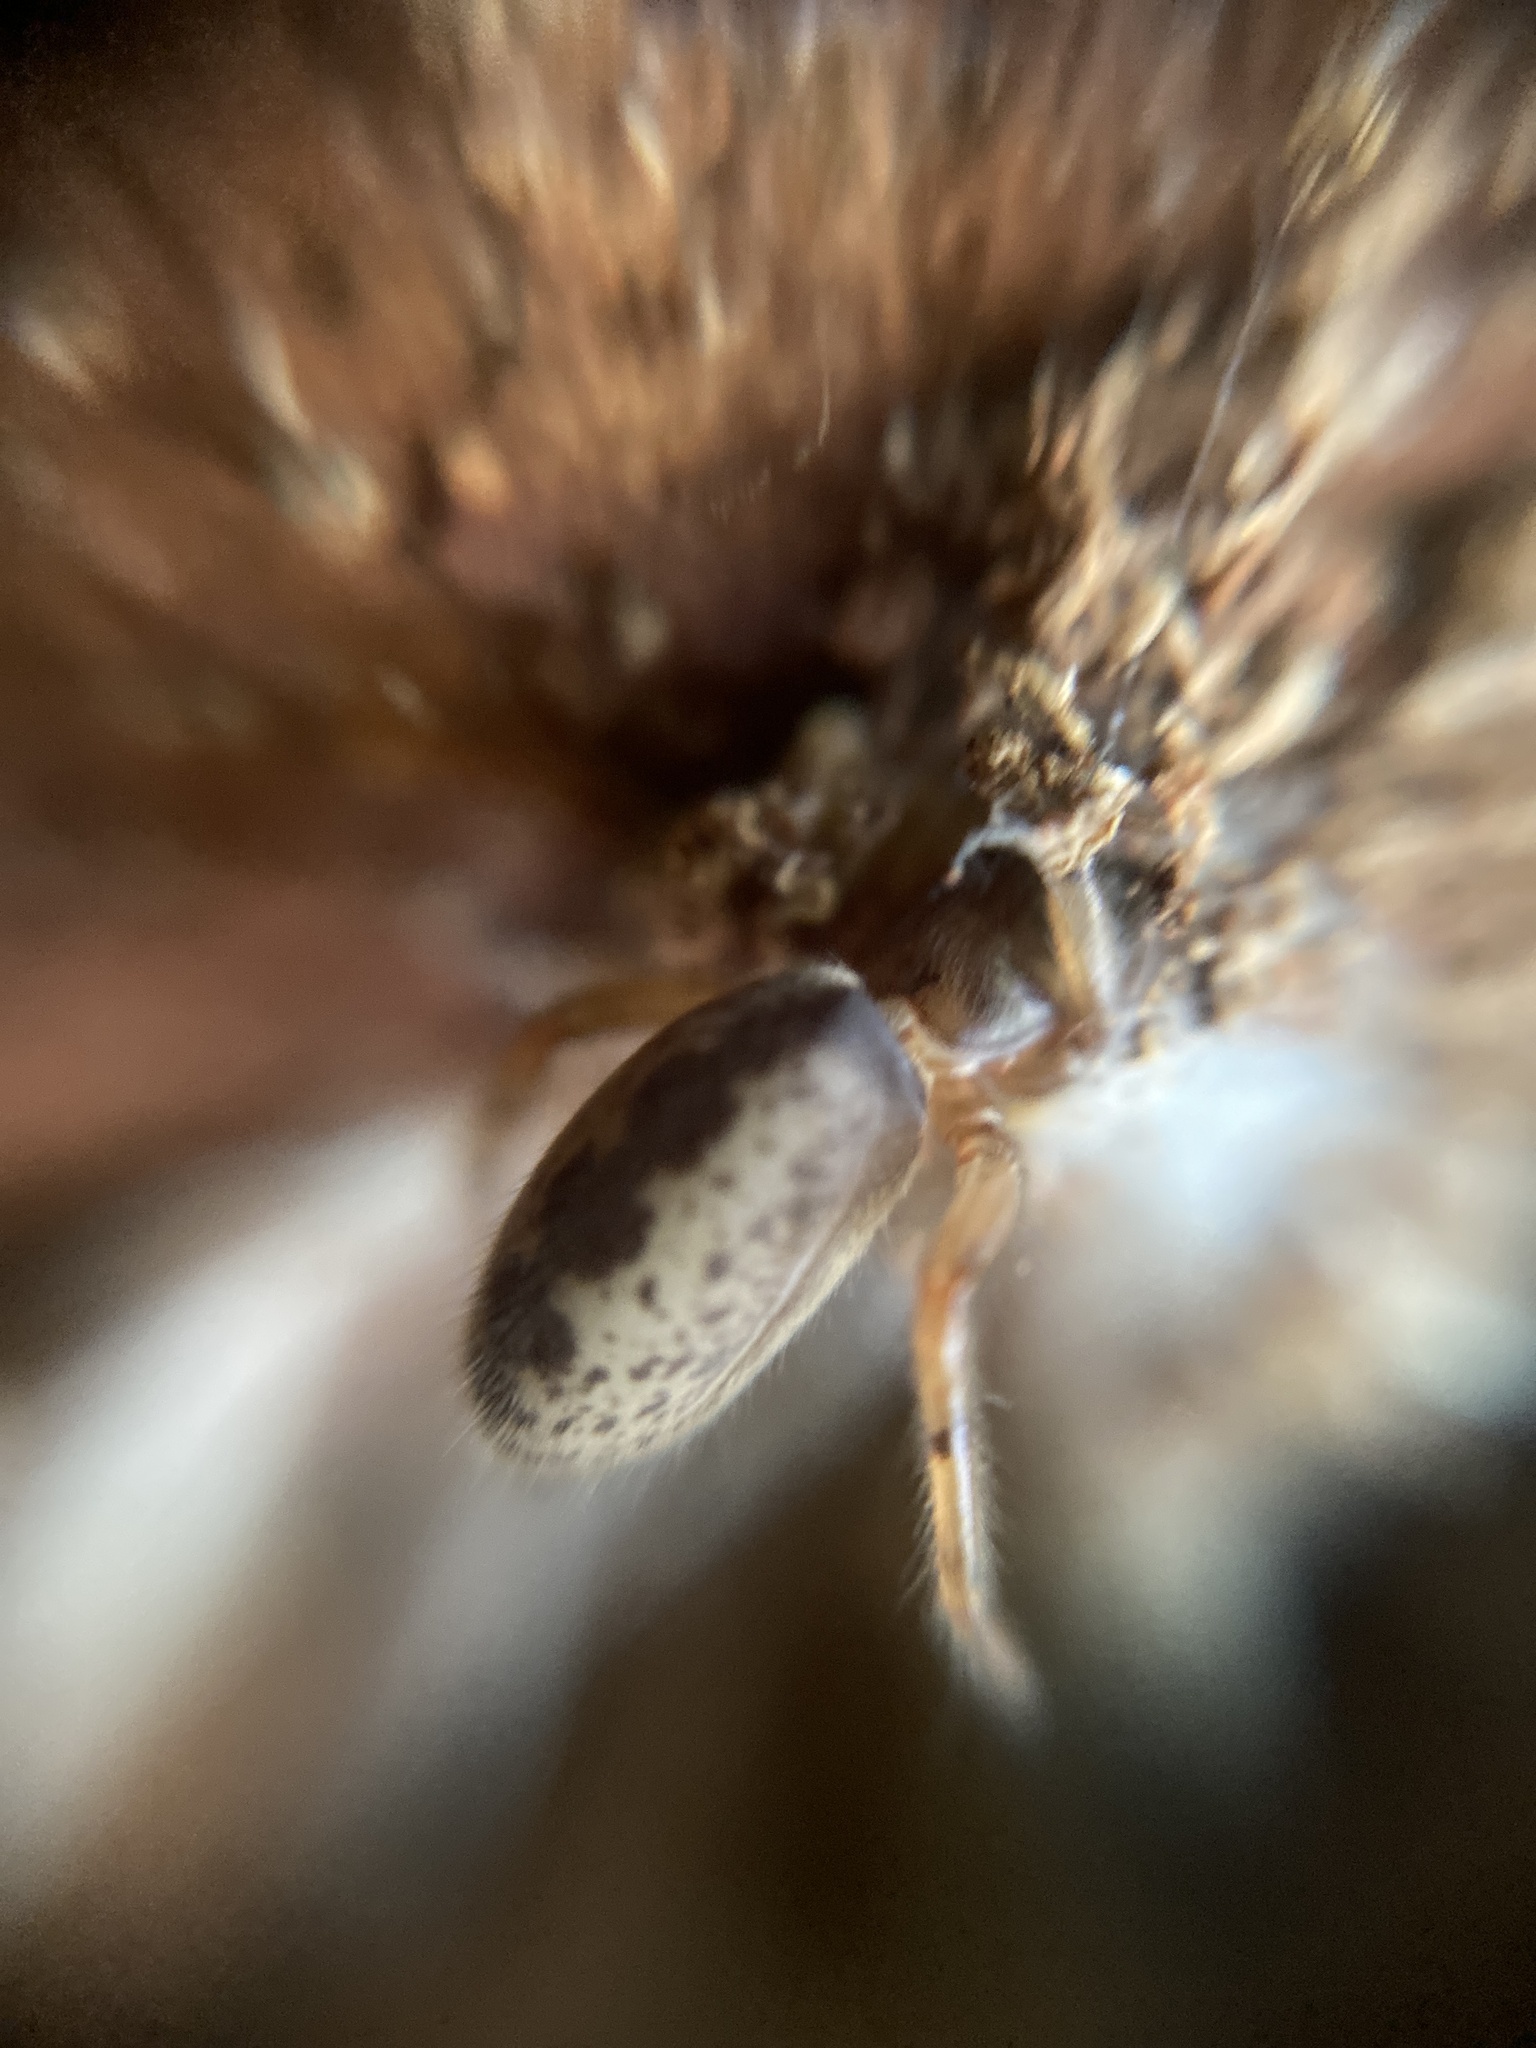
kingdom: Animalia
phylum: Arthropoda
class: Arachnida
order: Araneae
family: Segestriidae
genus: Segestria
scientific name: Segestria senoculata
